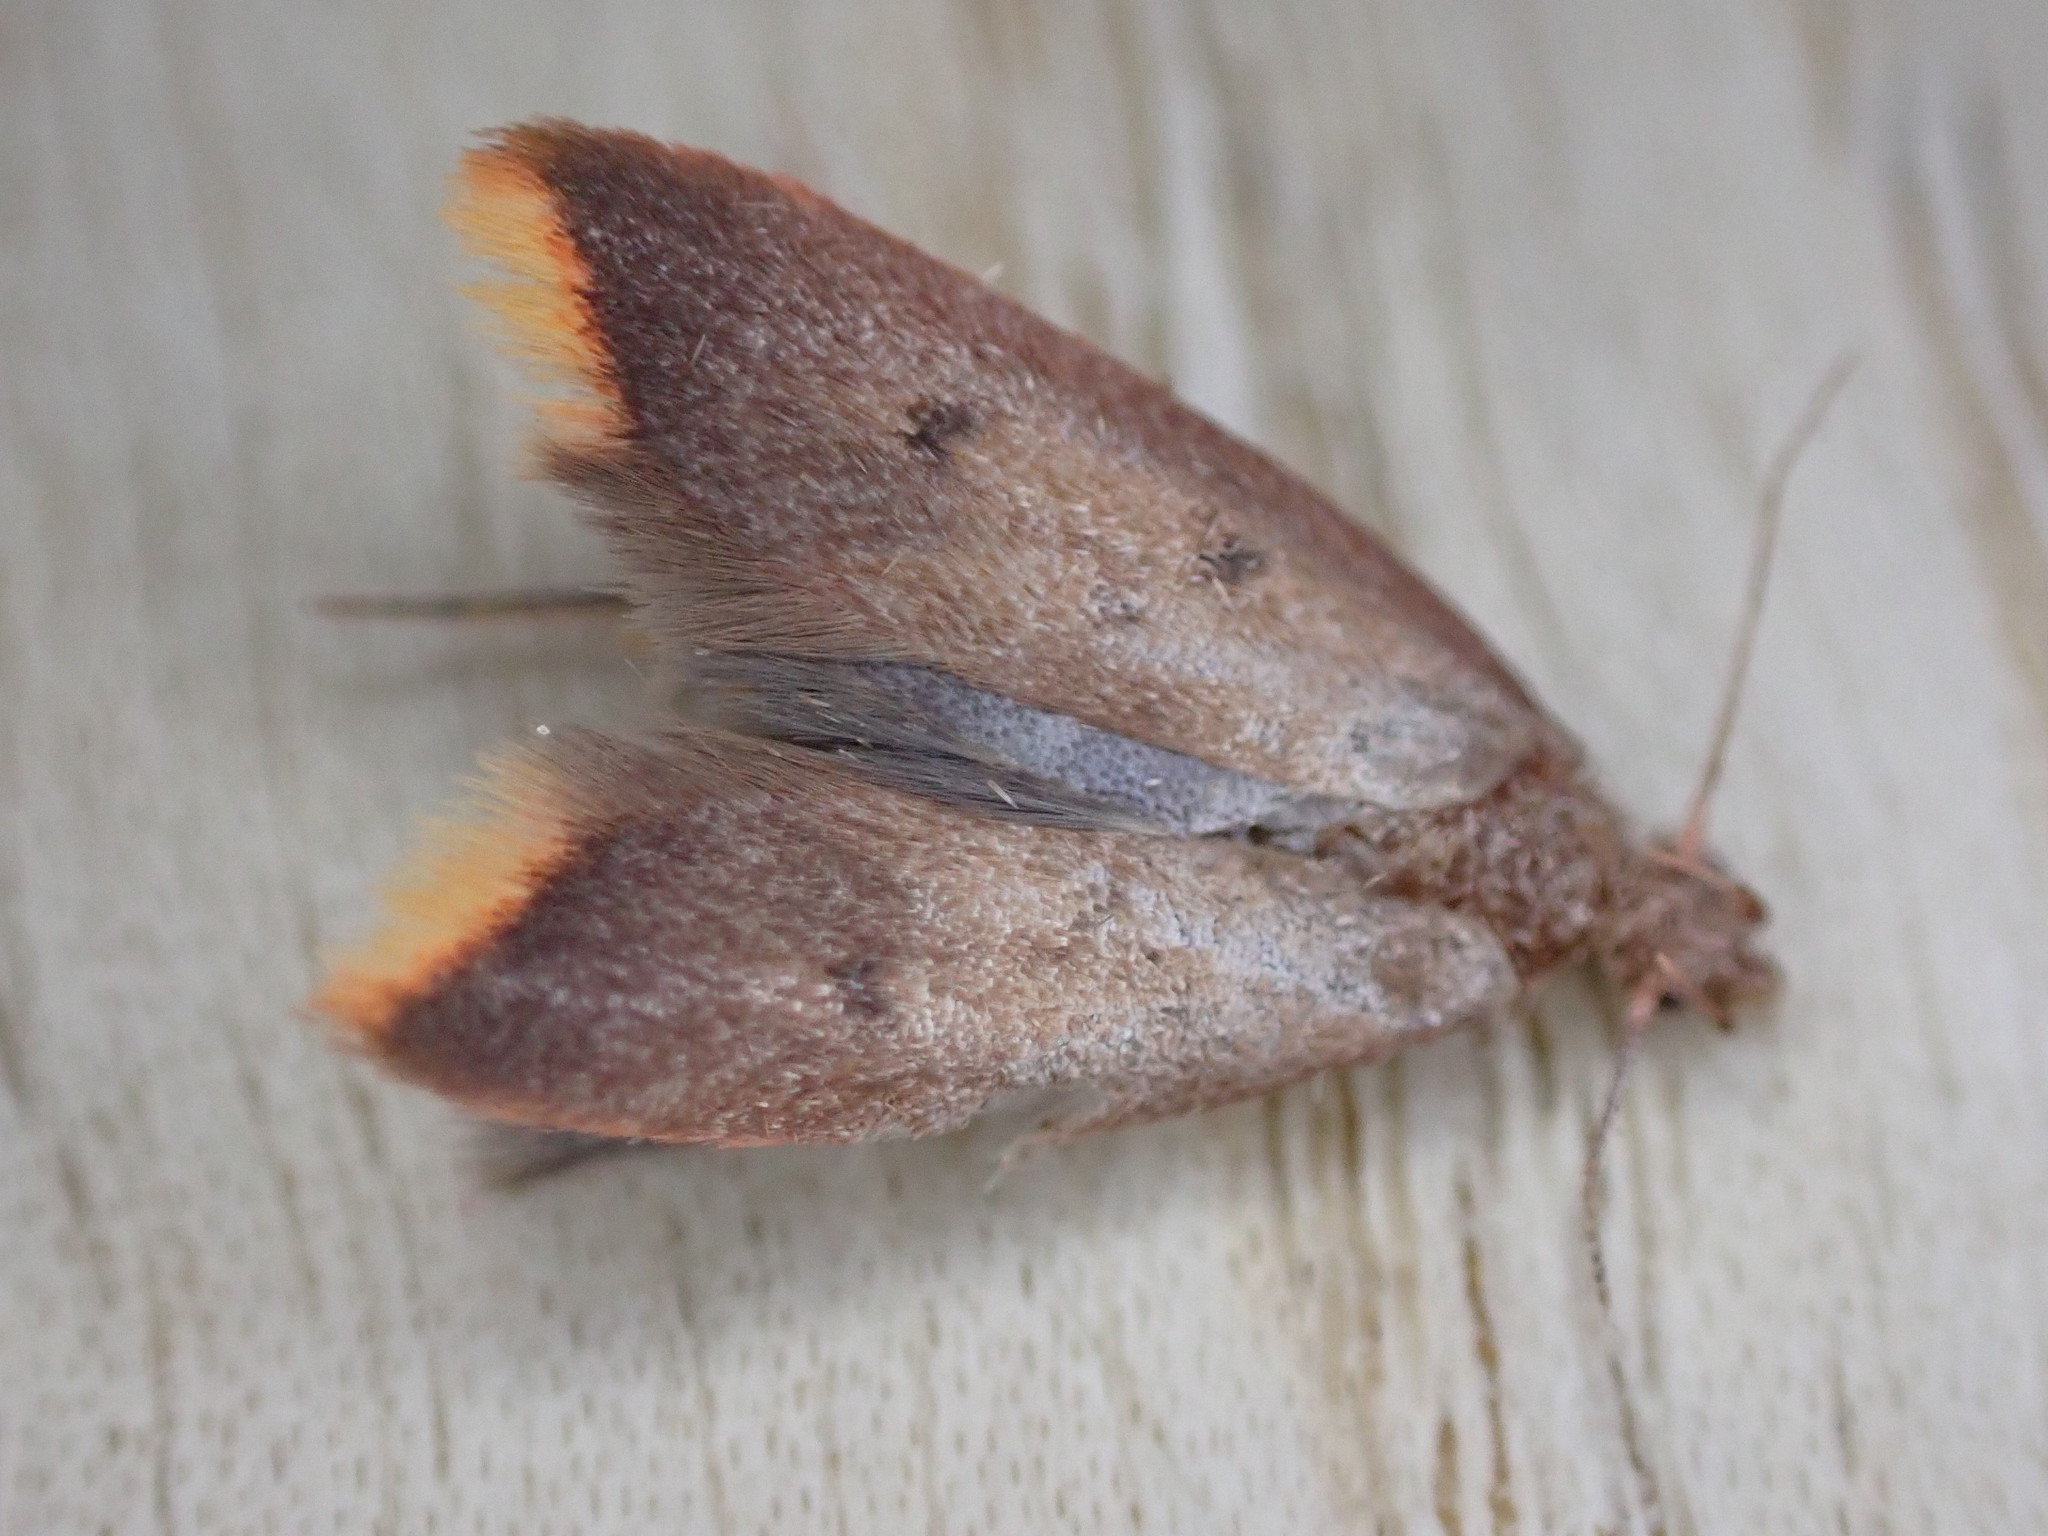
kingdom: Animalia
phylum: Arthropoda
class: Insecta
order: Lepidoptera
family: Oecophoridae
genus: Tachystola
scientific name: Tachystola acroxantha
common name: Ruddy streak
